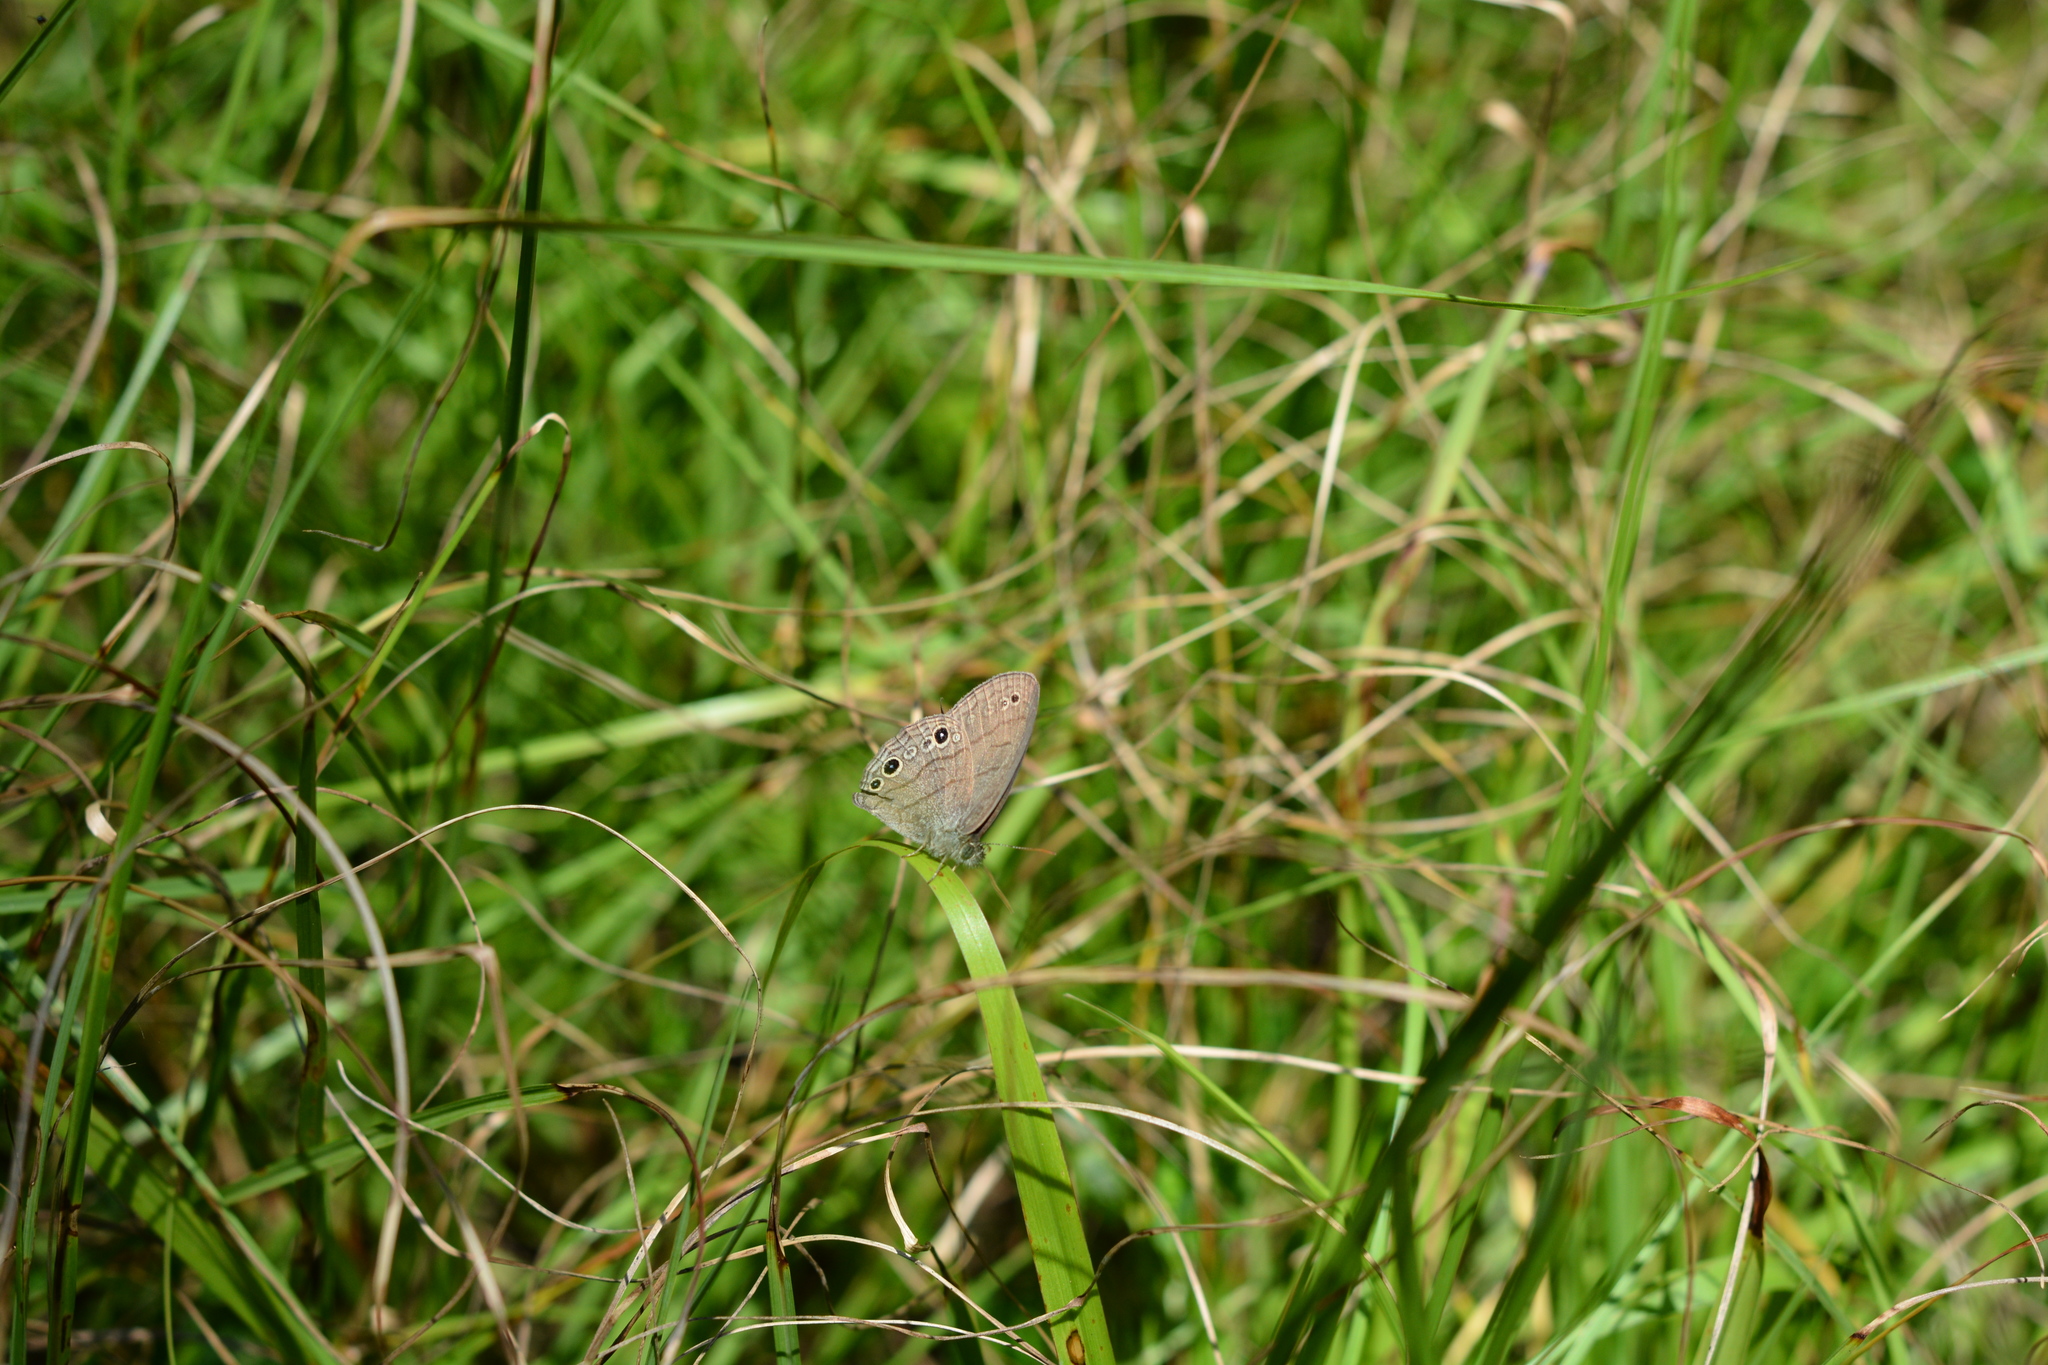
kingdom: Animalia
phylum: Arthropoda
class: Insecta
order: Lepidoptera
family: Nymphalidae
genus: Hermeuptychia
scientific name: Hermeuptychia hermes
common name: Hermes satyr
